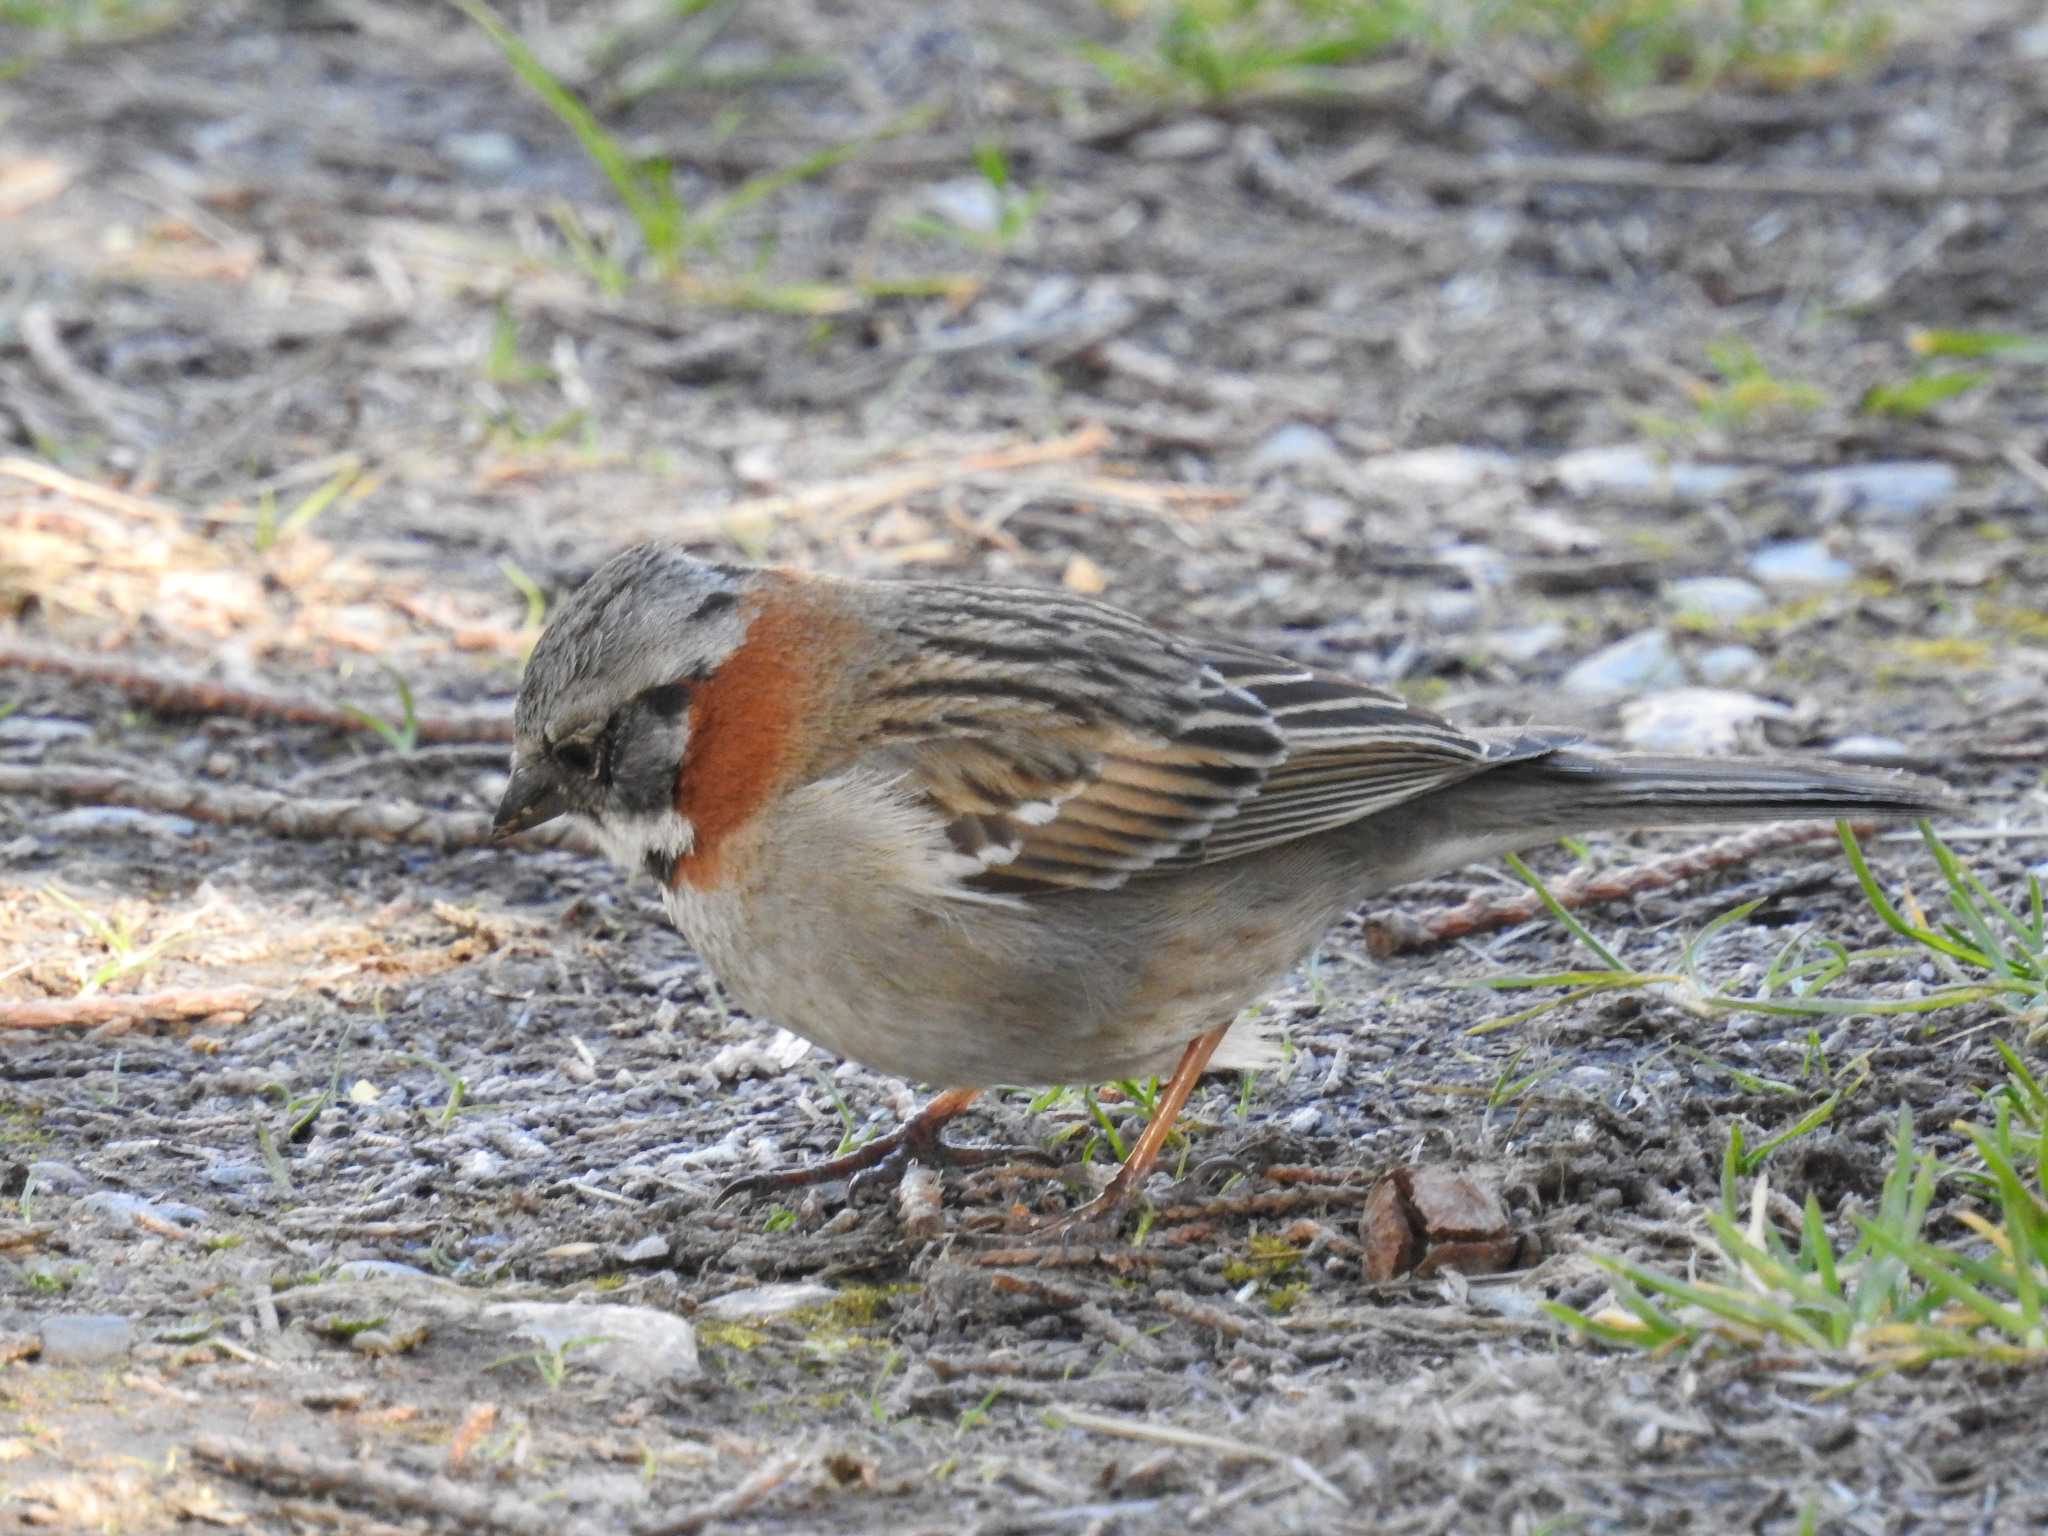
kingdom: Animalia
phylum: Chordata
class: Aves
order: Passeriformes
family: Passerellidae
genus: Zonotrichia
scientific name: Zonotrichia capensis
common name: Rufous-collared sparrow
